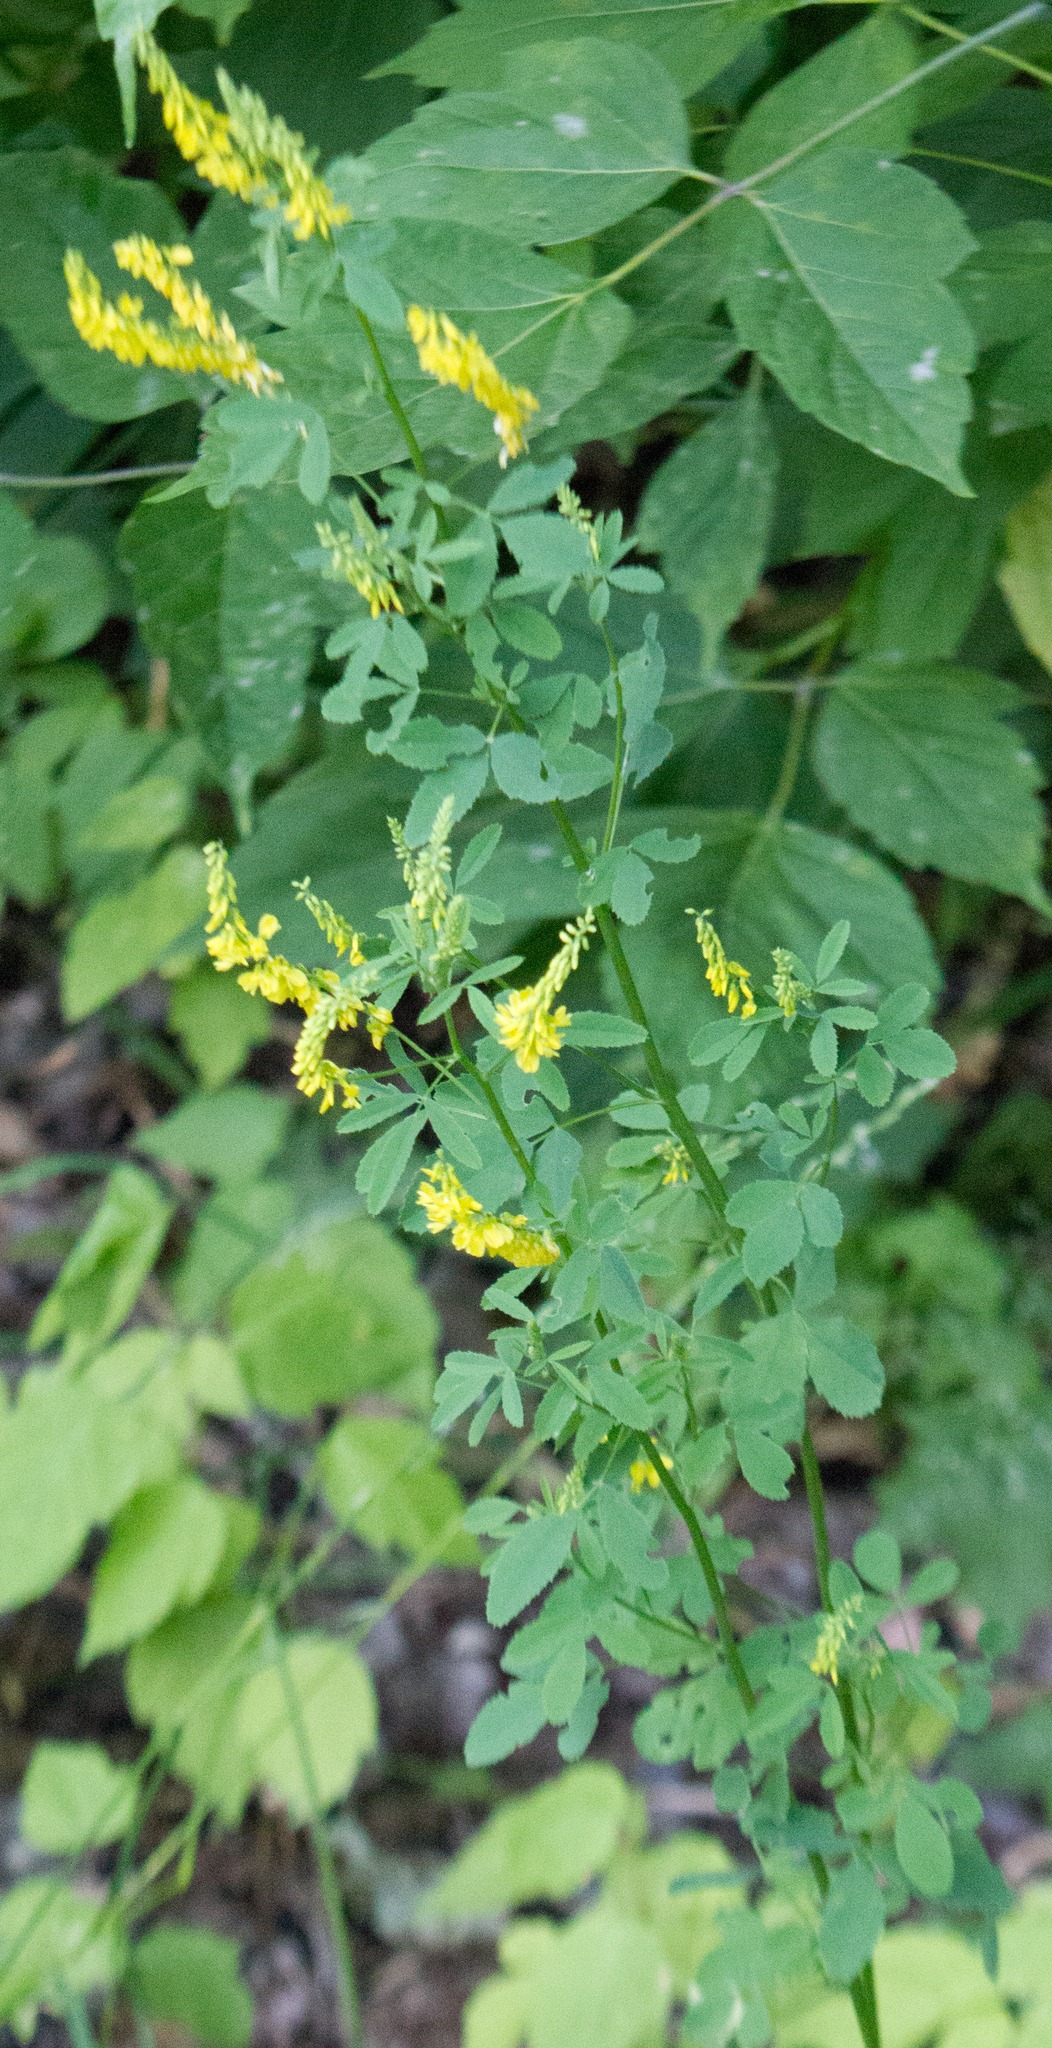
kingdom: Plantae
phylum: Tracheophyta
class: Magnoliopsida
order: Fabales
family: Fabaceae
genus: Melilotus
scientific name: Melilotus officinalis
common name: Sweetclover
